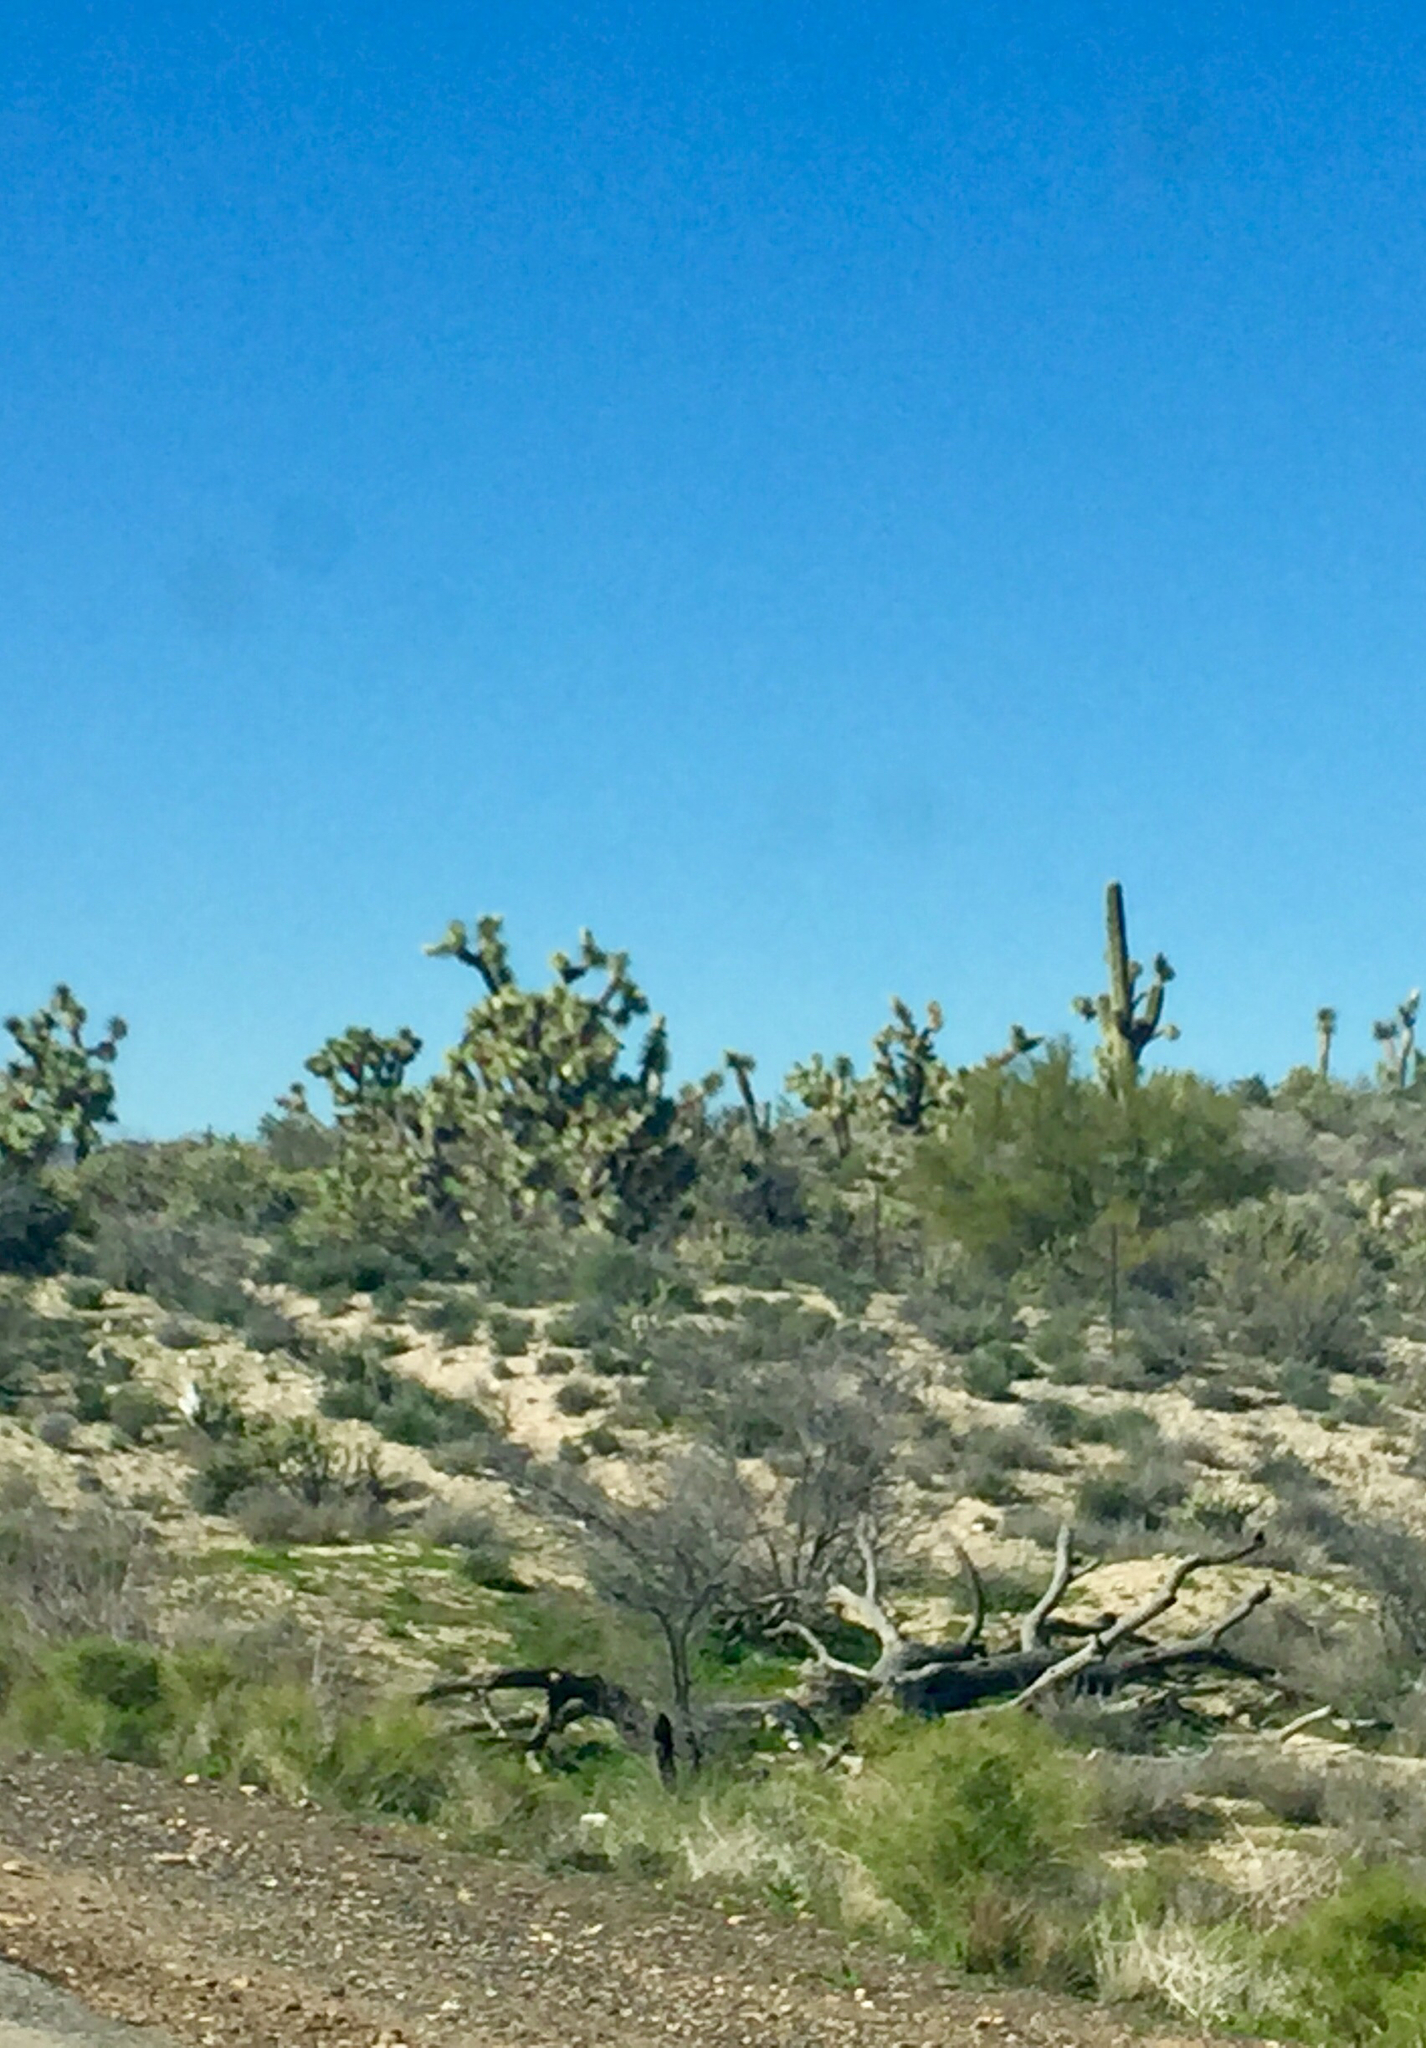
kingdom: Plantae
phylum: Tracheophyta
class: Liliopsida
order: Asparagales
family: Asparagaceae
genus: Yucca
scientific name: Yucca brevifolia
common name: Joshua tree
